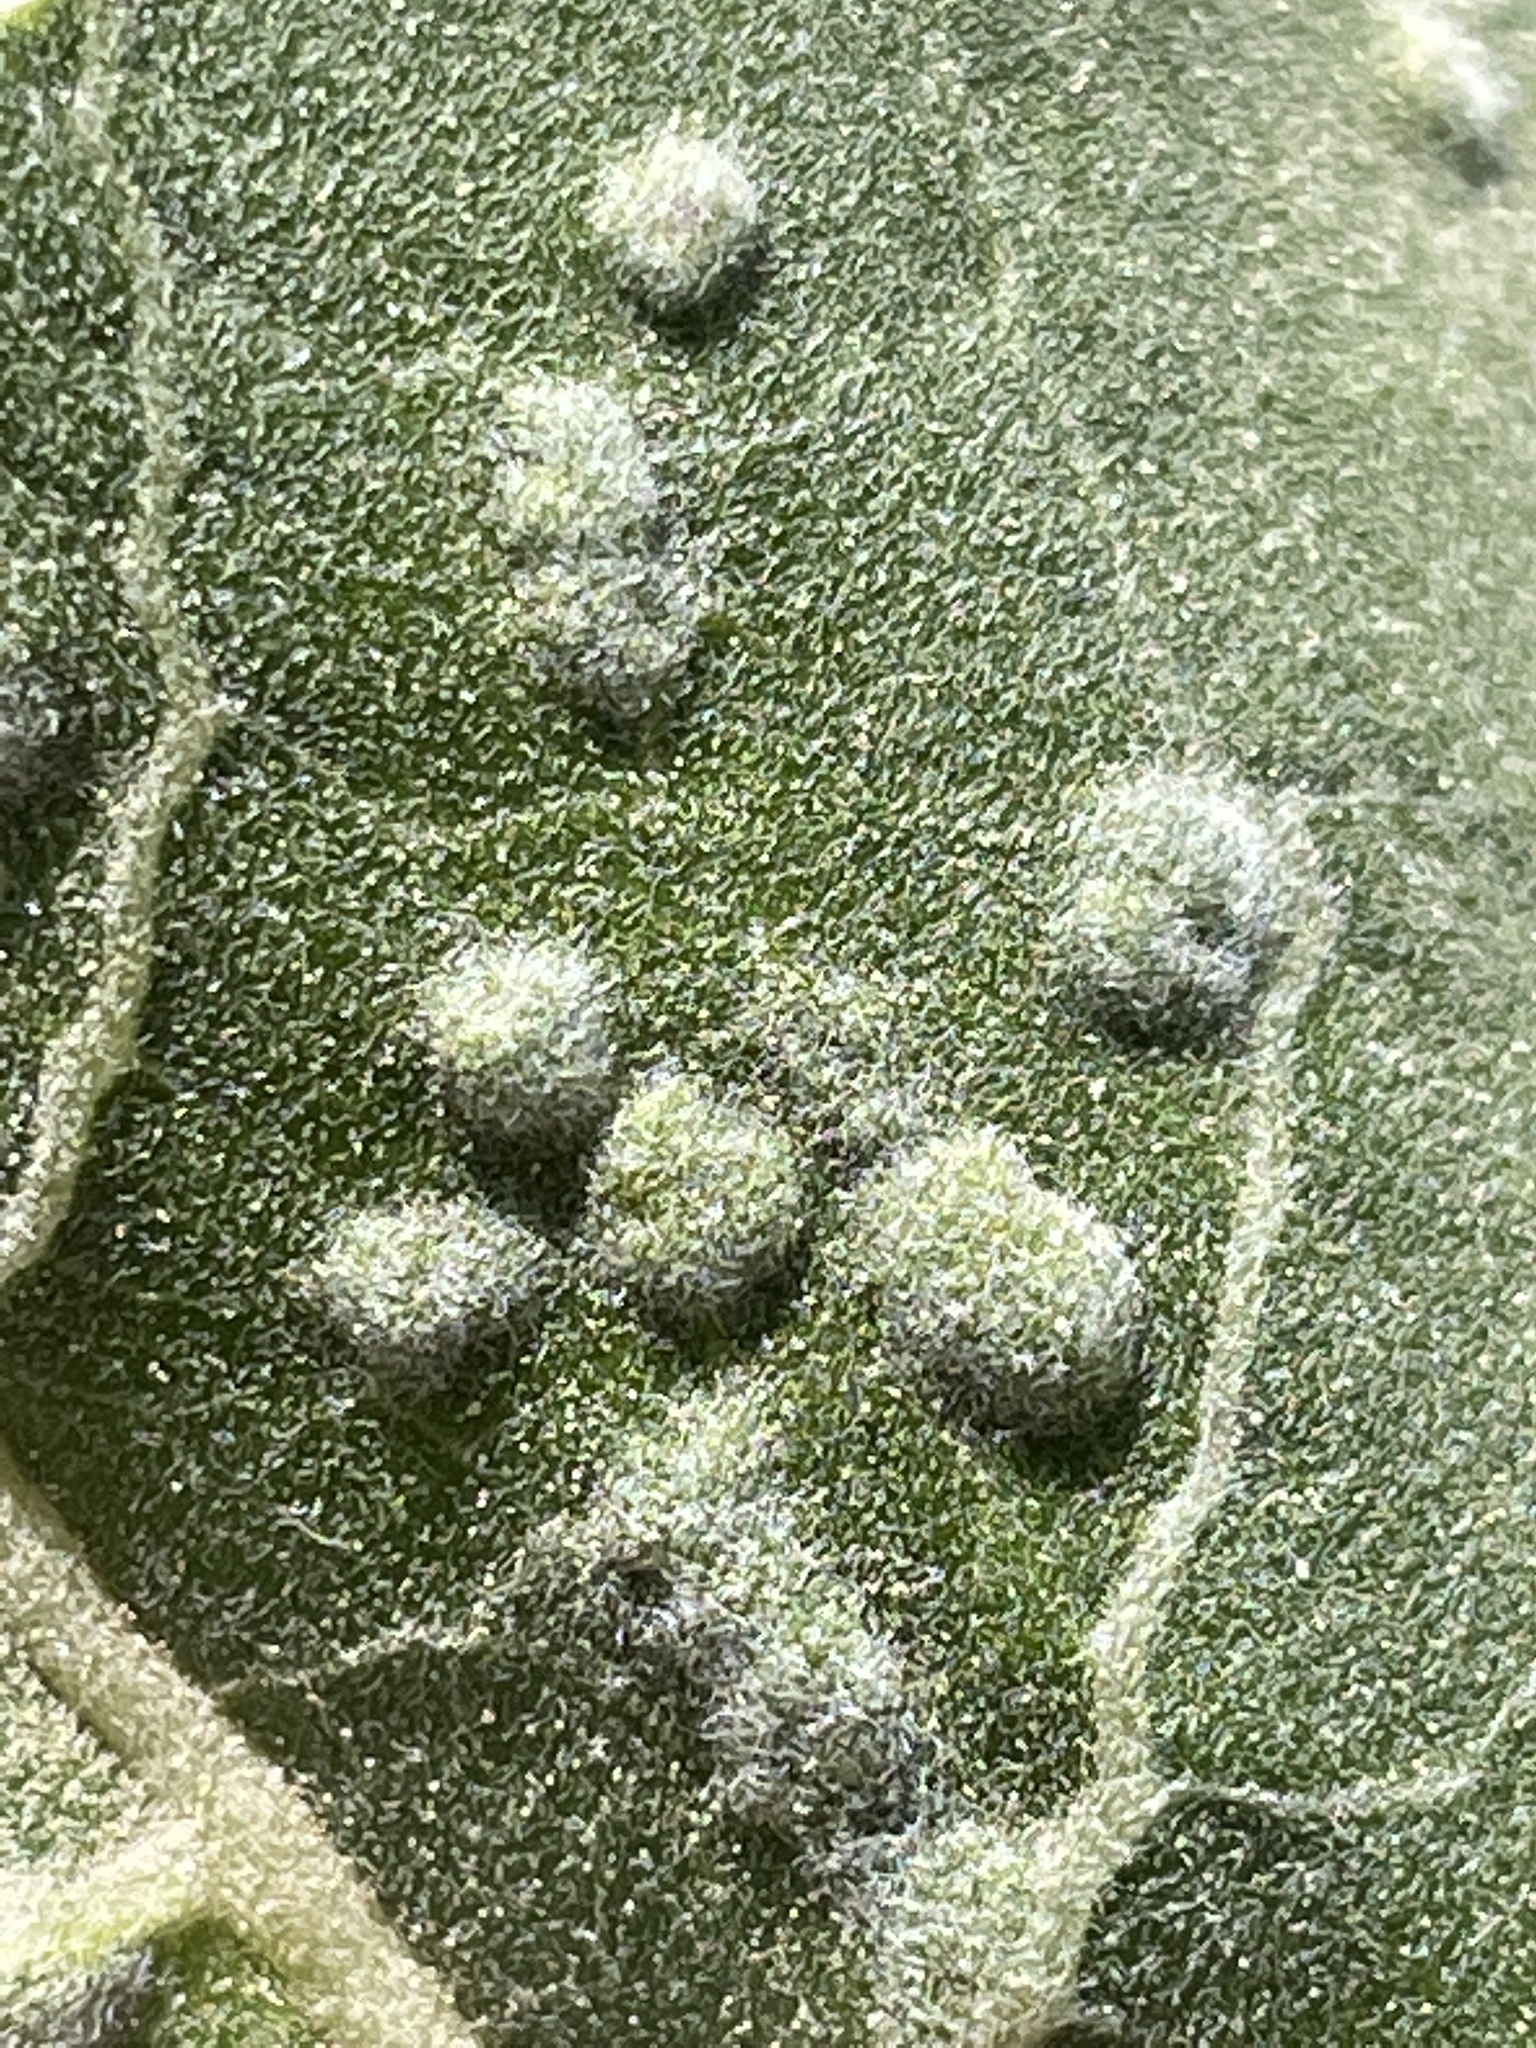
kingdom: Animalia
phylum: Nematoda
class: Chromadorea
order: Rhabditida
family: Anguinidae
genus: Anguina
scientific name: Anguina
